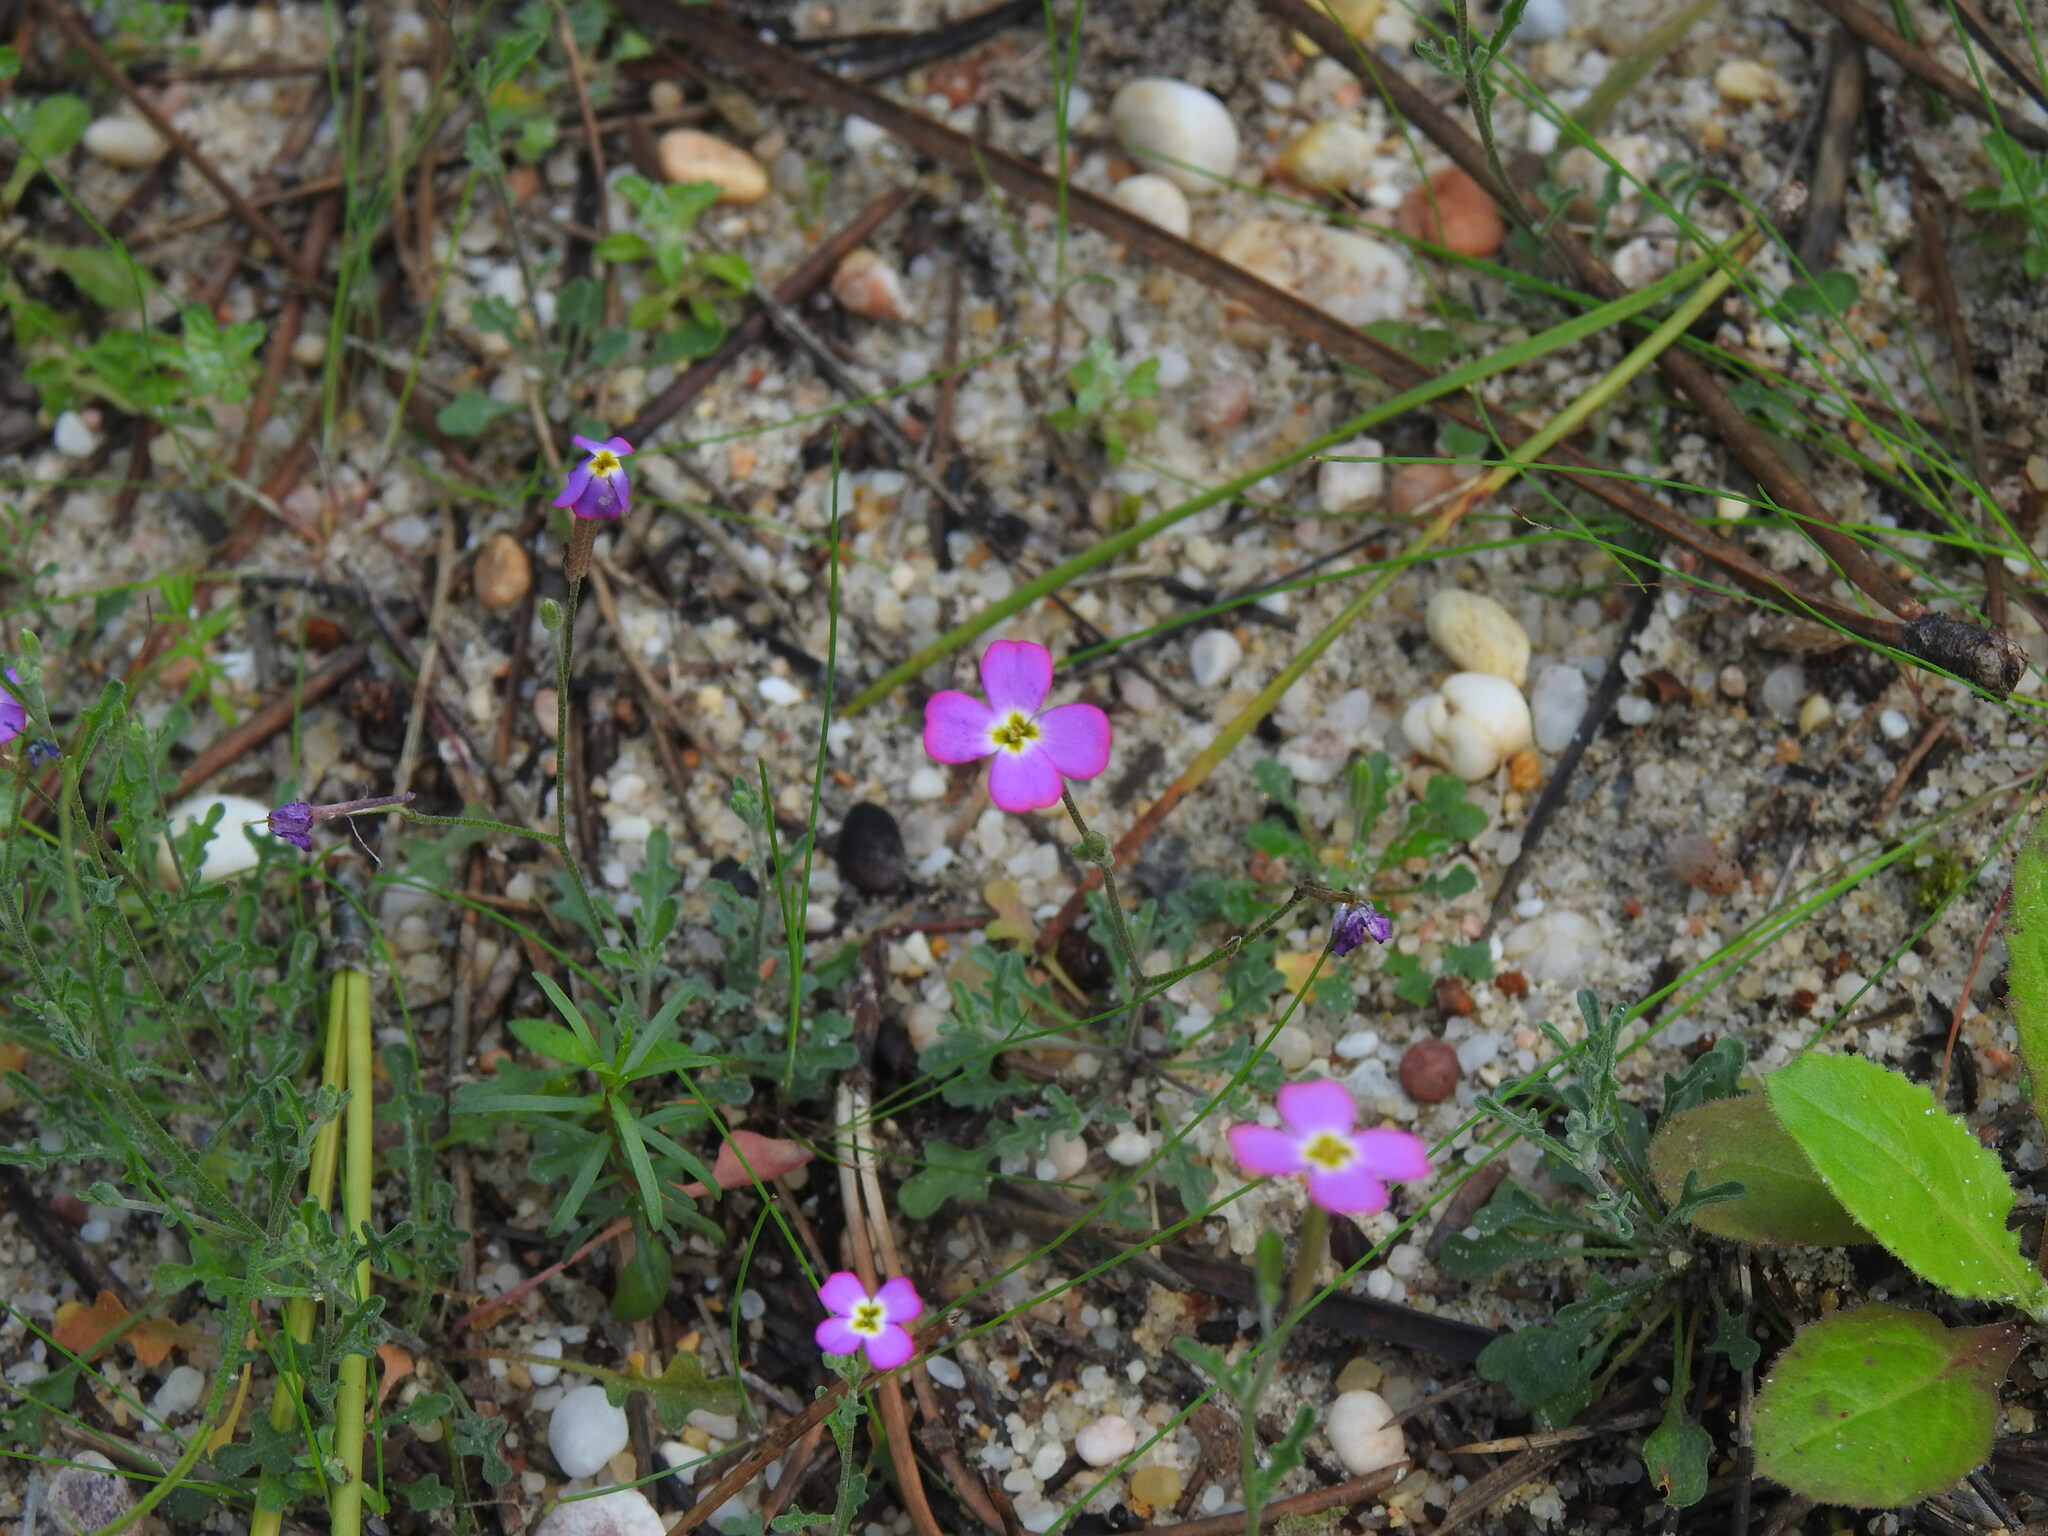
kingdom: Plantae
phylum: Tracheophyta
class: Magnoliopsida
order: Brassicales
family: Brassicaceae
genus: Marcuskochia
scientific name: Marcuskochia triloba
